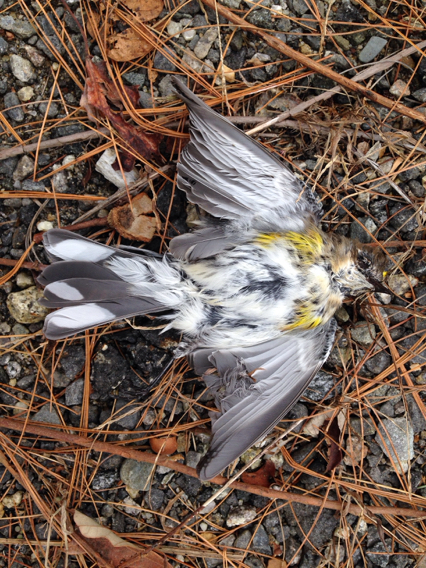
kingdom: Animalia
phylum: Chordata
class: Aves
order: Passeriformes
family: Parulidae
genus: Setophaga
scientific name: Setophaga coronata
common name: Myrtle warbler
